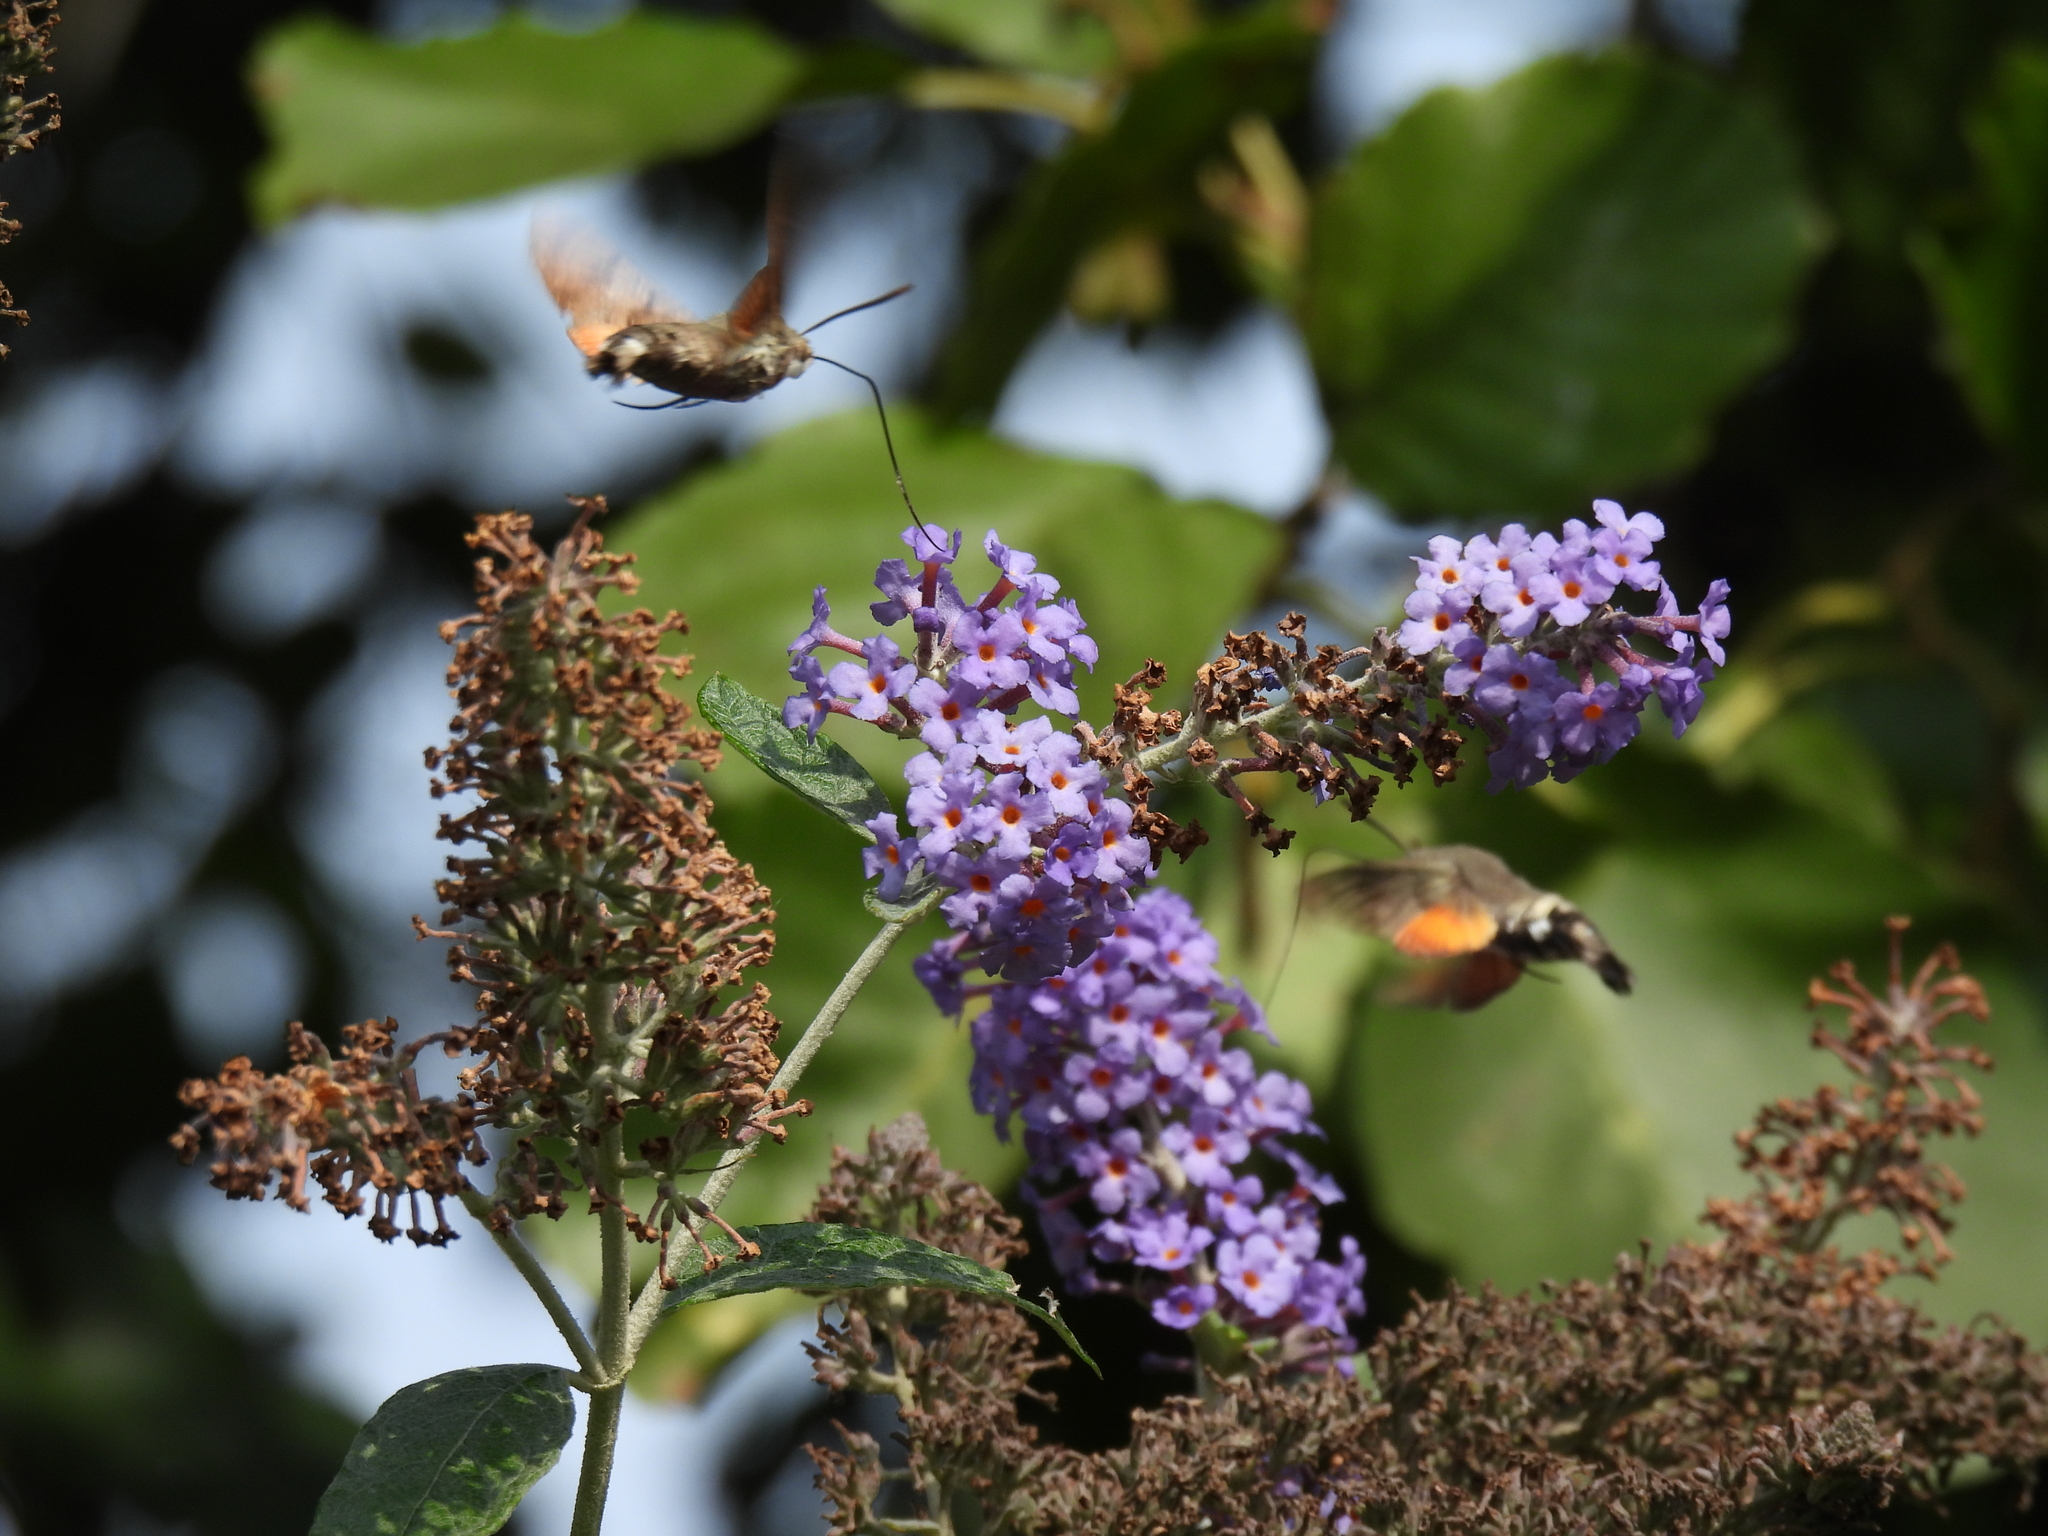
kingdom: Animalia
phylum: Arthropoda
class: Insecta
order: Lepidoptera
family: Sphingidae
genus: Macroglossum
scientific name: Macroglossum stellatarum
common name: Humming-bird hawk-moth
